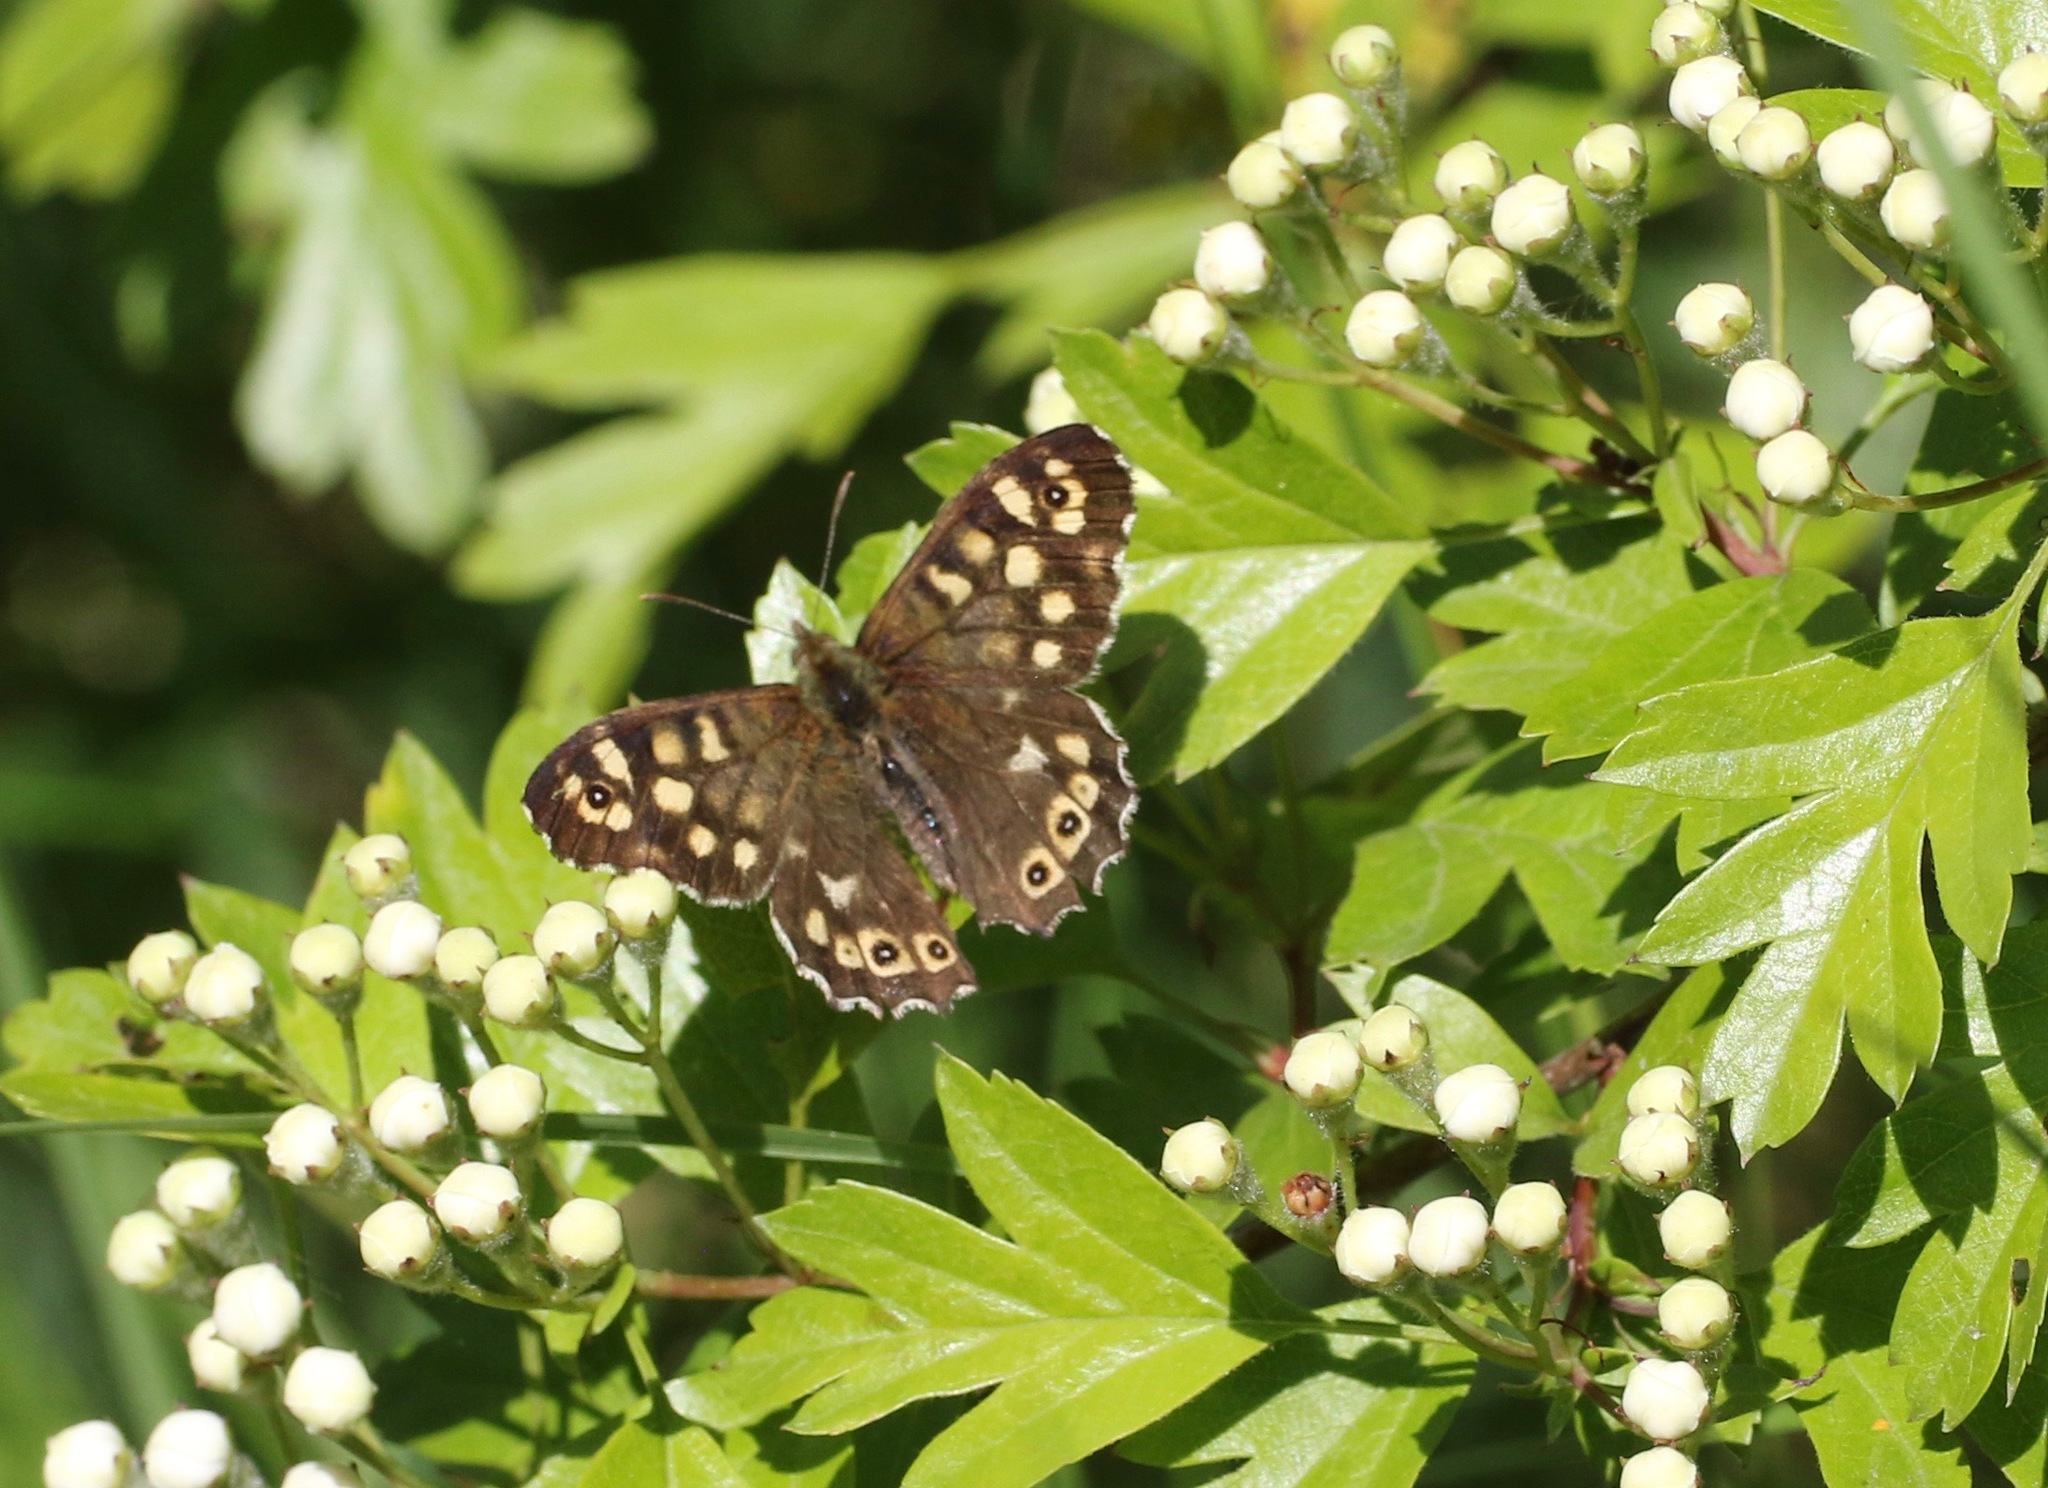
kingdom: Animalia
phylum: Arthropoda
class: Insecta
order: Lepidoptera
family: Nymphalidae
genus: Pararge
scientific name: Pararge aegeria
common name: Speckled wood
